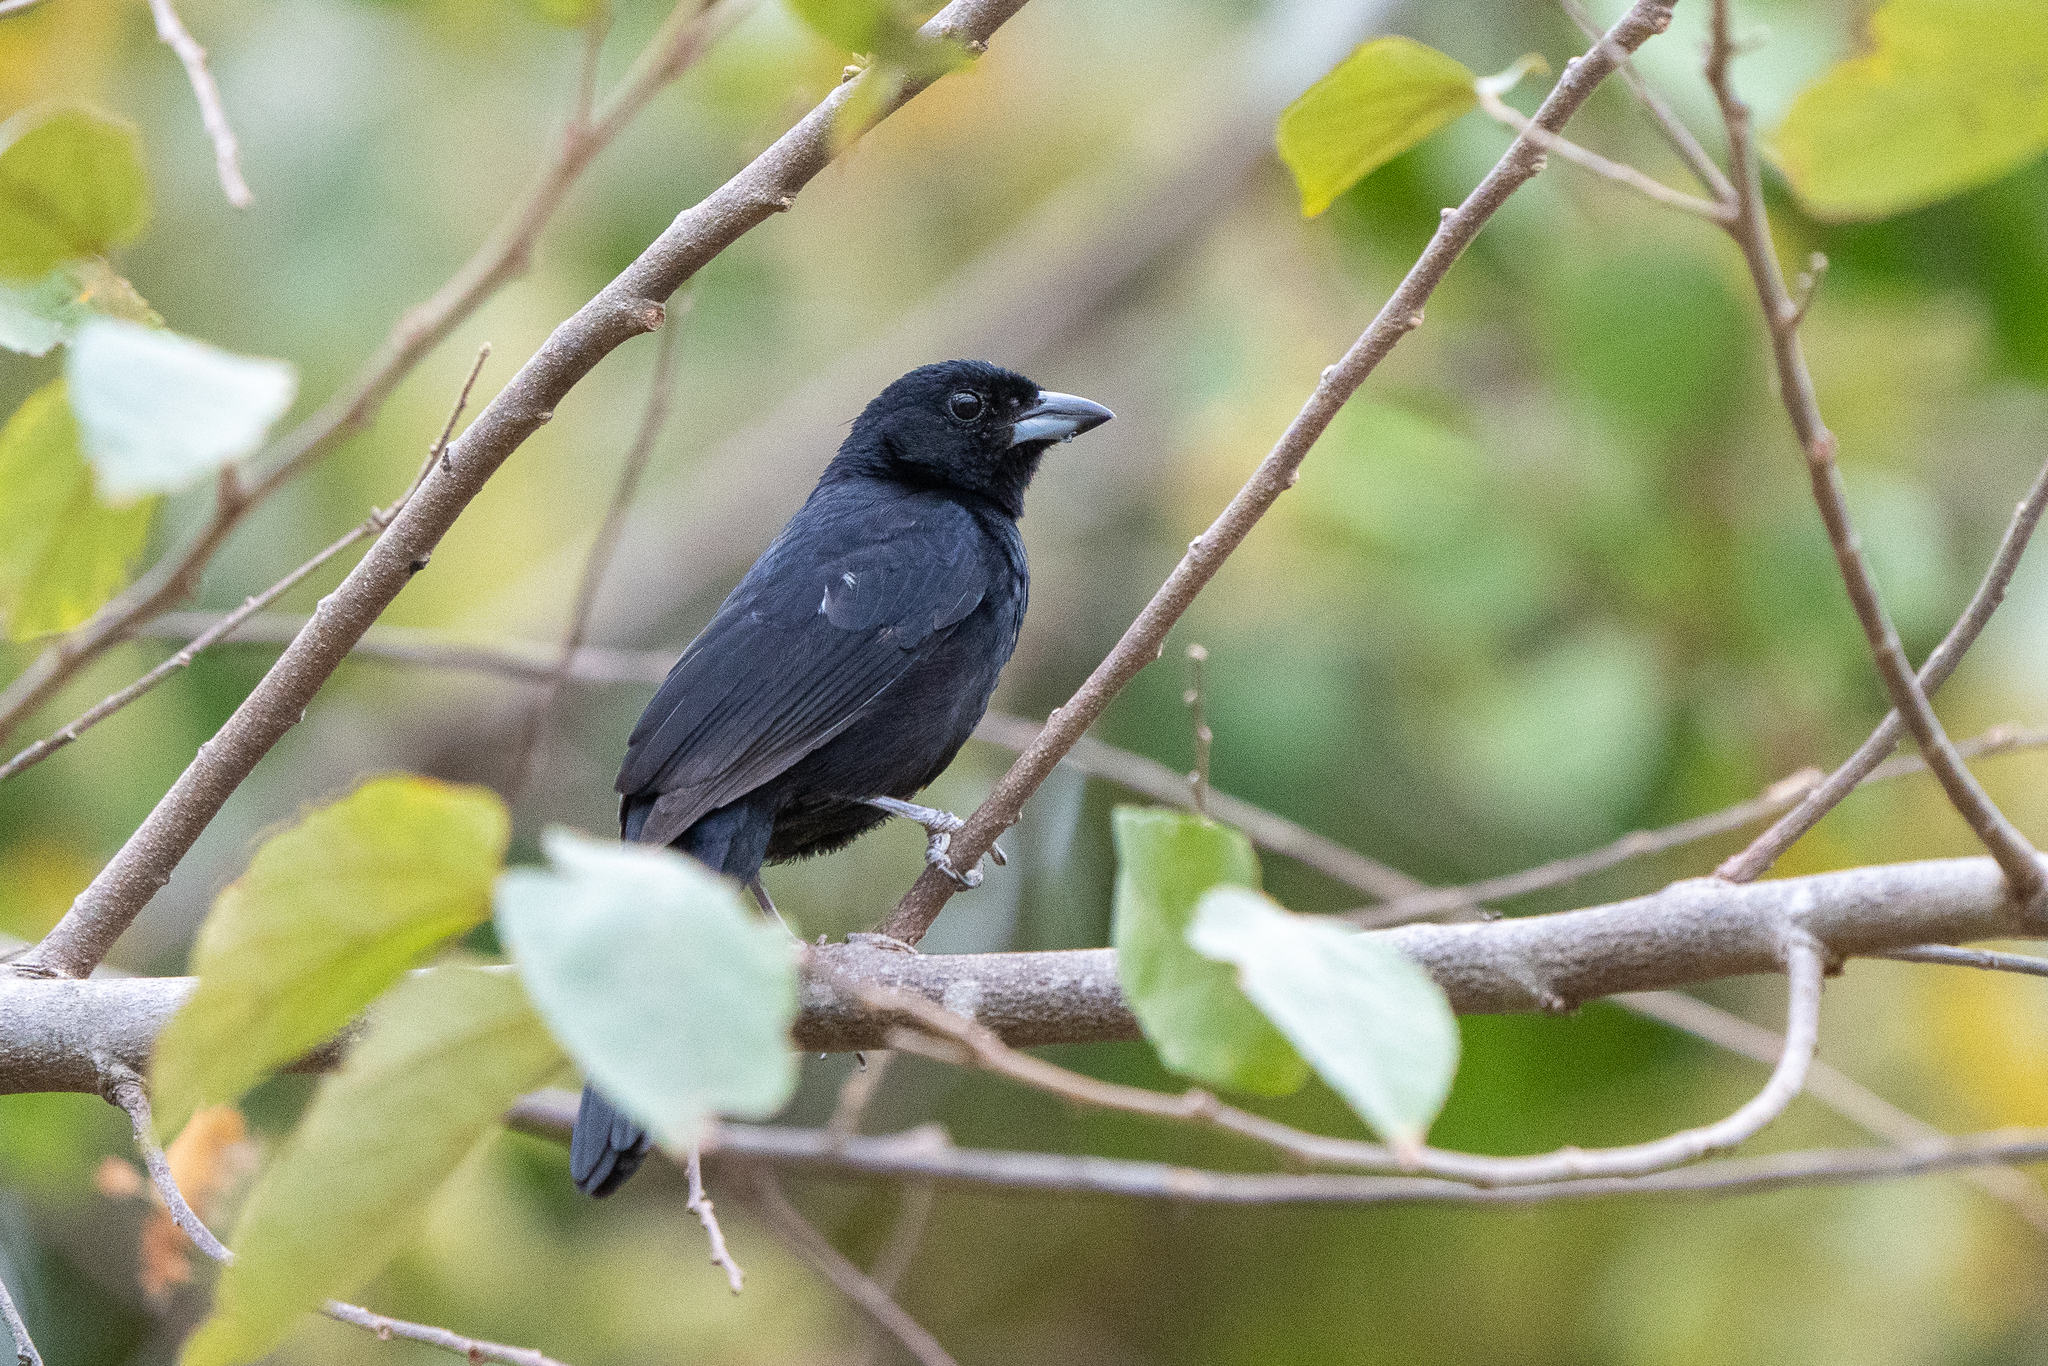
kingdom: Animalia
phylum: Chordata
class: Aves
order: Passeriformes
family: Thraupidae
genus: Tachyphonus
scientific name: Tachyphonus rufus
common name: White-lined tanager
